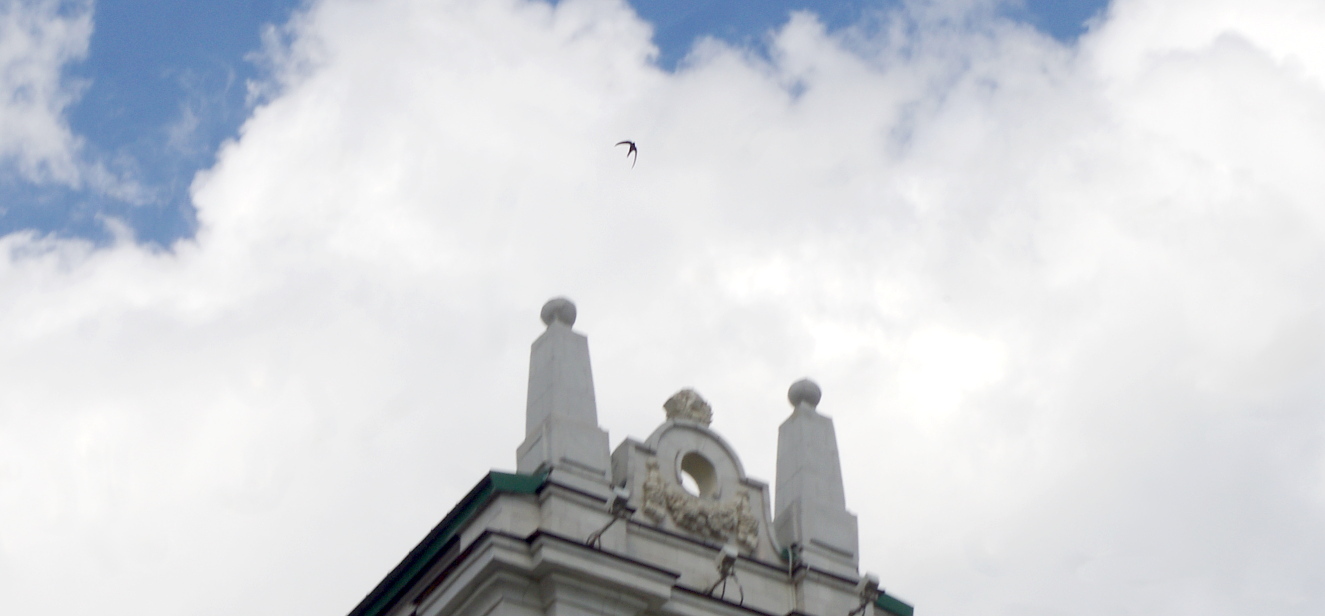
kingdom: Animalia
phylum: Chordata
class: Aves
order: Apodiformes
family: Apodidae
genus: Apus
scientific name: Apus apus
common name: Common swift
